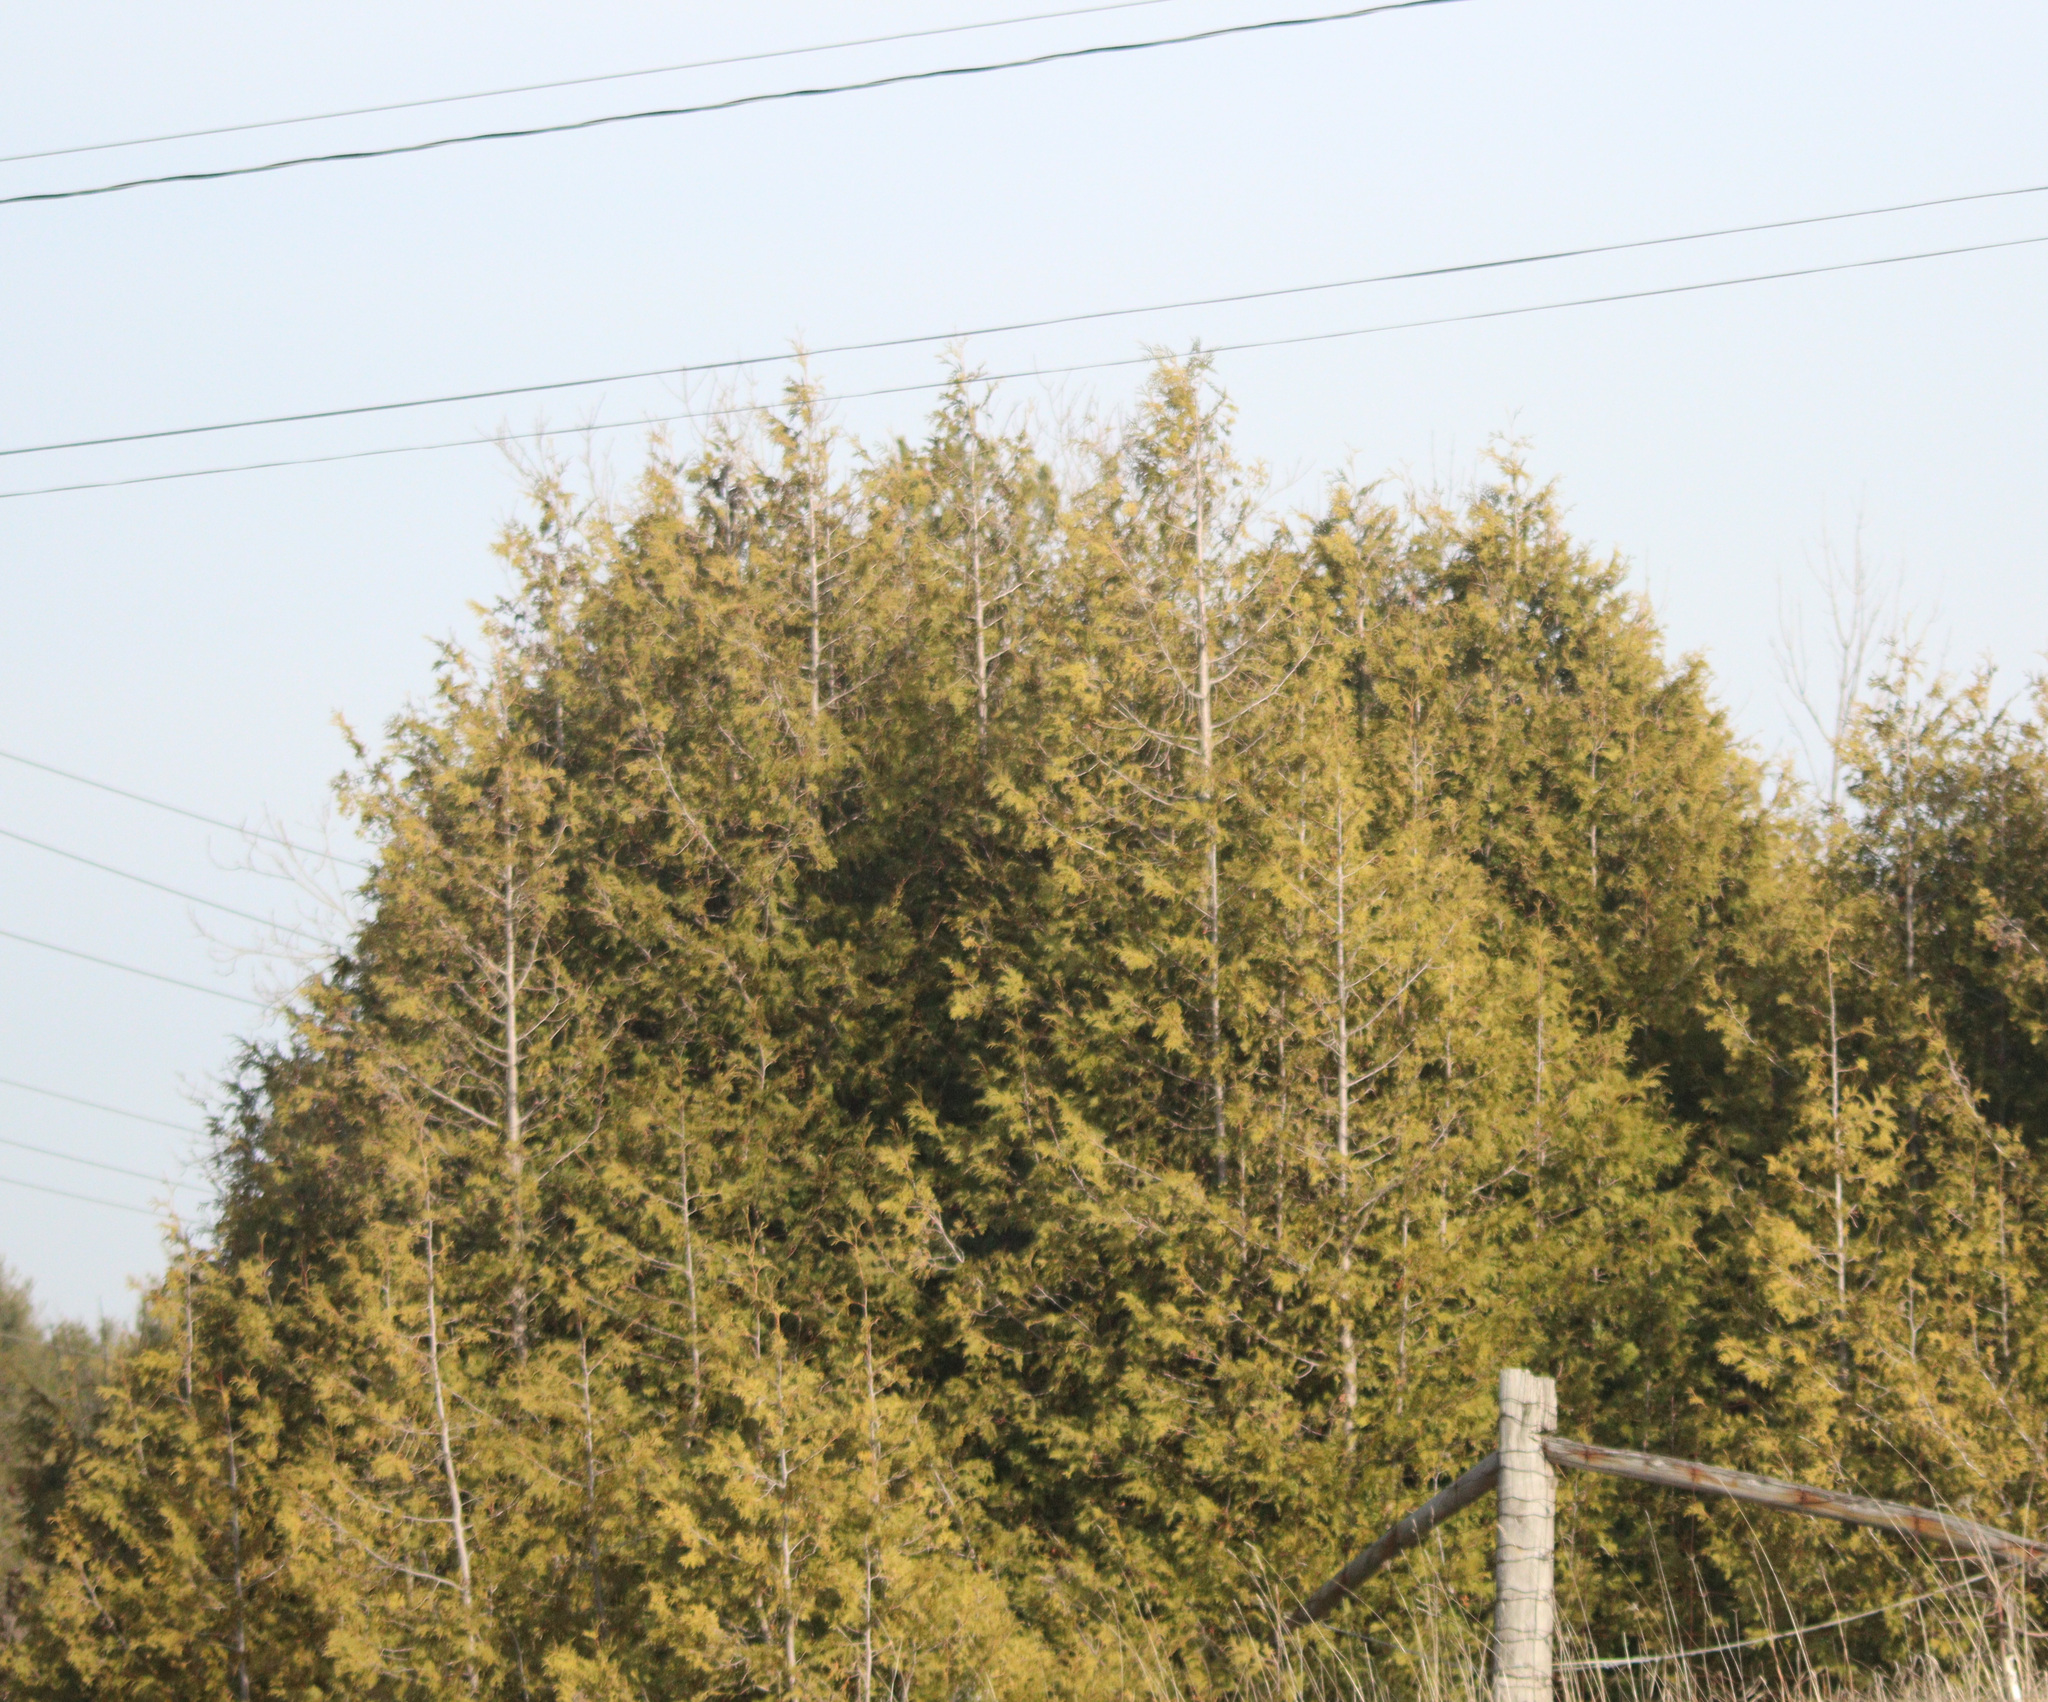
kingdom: Plantae
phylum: Tracheophyta
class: Pinopsida
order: Pinales
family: Cupressaceae
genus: Thuja
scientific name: Thuja occidentalis
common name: Northern white-cedar
